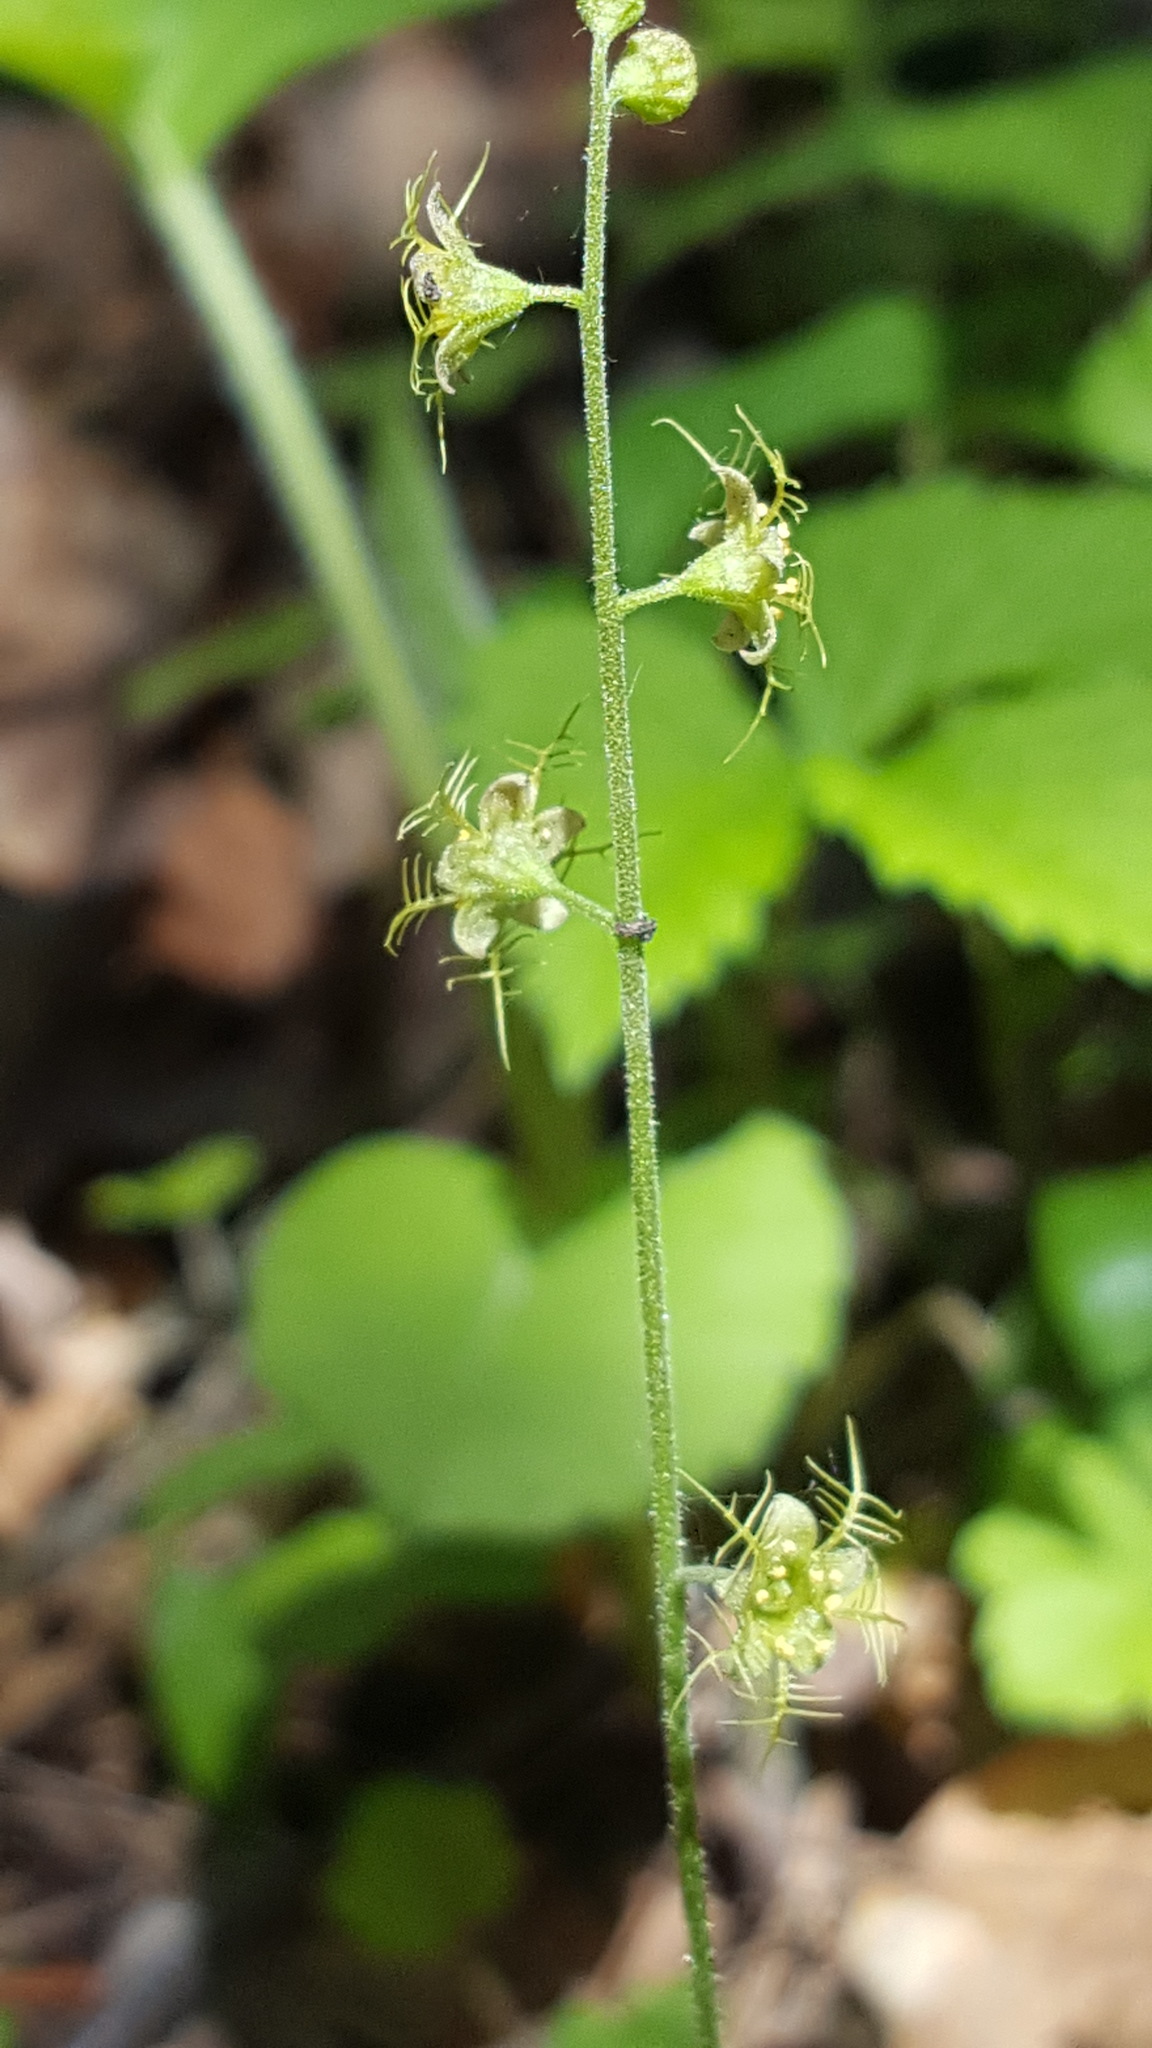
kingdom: Plantae
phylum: Tracheophyta
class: Magnoliopsida
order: Saxifragales
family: Saxifragaceae
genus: Mitella
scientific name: Mitella nuda
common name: Bare-stemmed bishop's-cap
